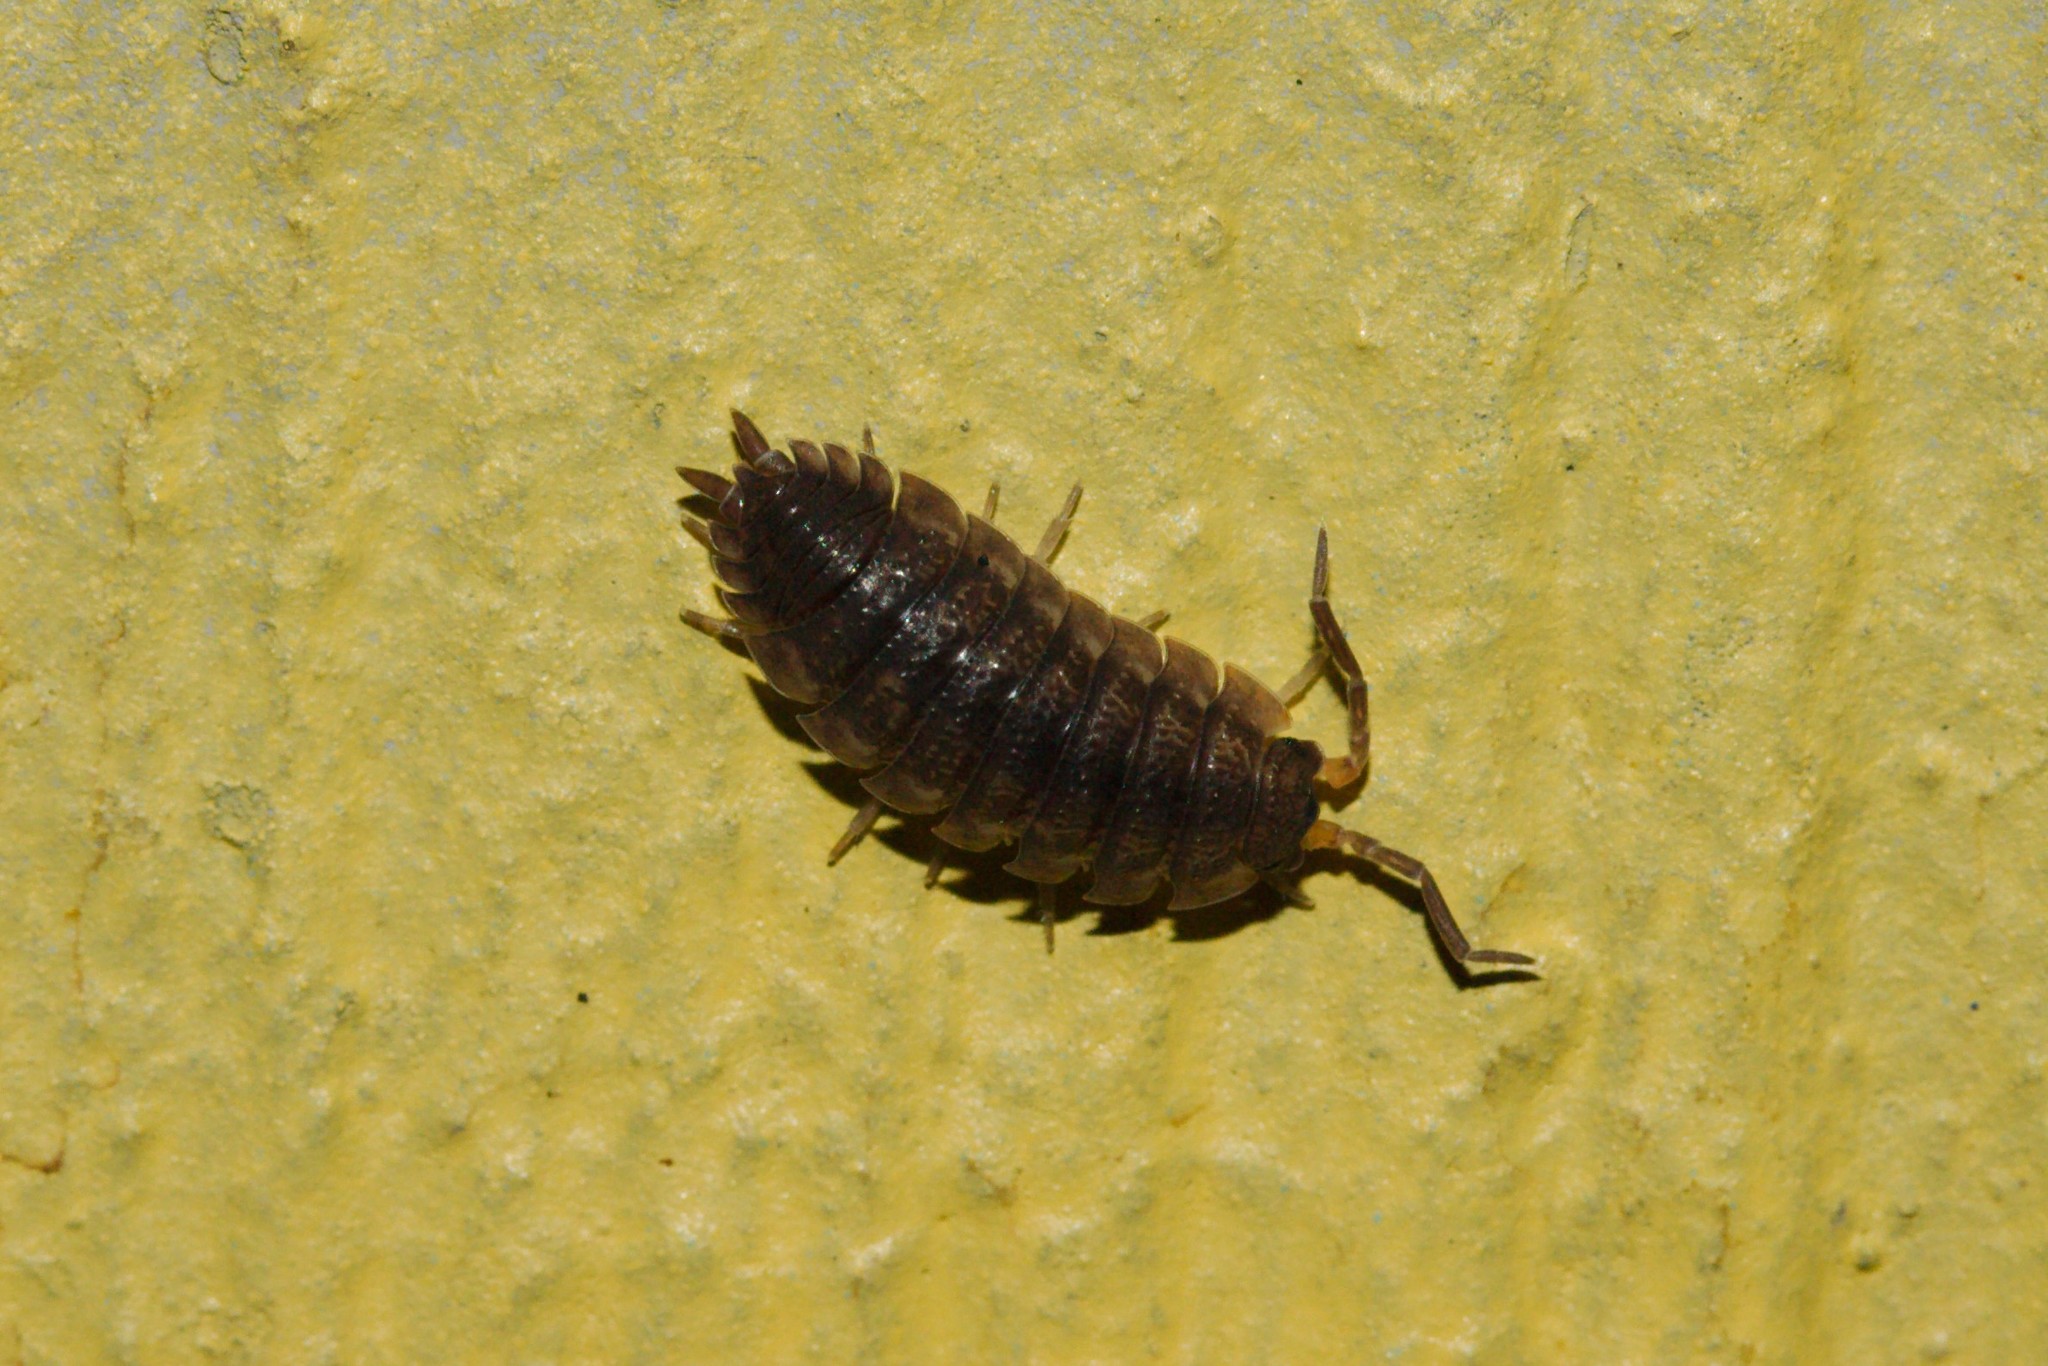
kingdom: Animalia
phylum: Arthropoda
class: Malacostraca
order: Isopoda
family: Porcellionidae
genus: Porcellio
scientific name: Porcellio scaber
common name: Common rough woodlouse
